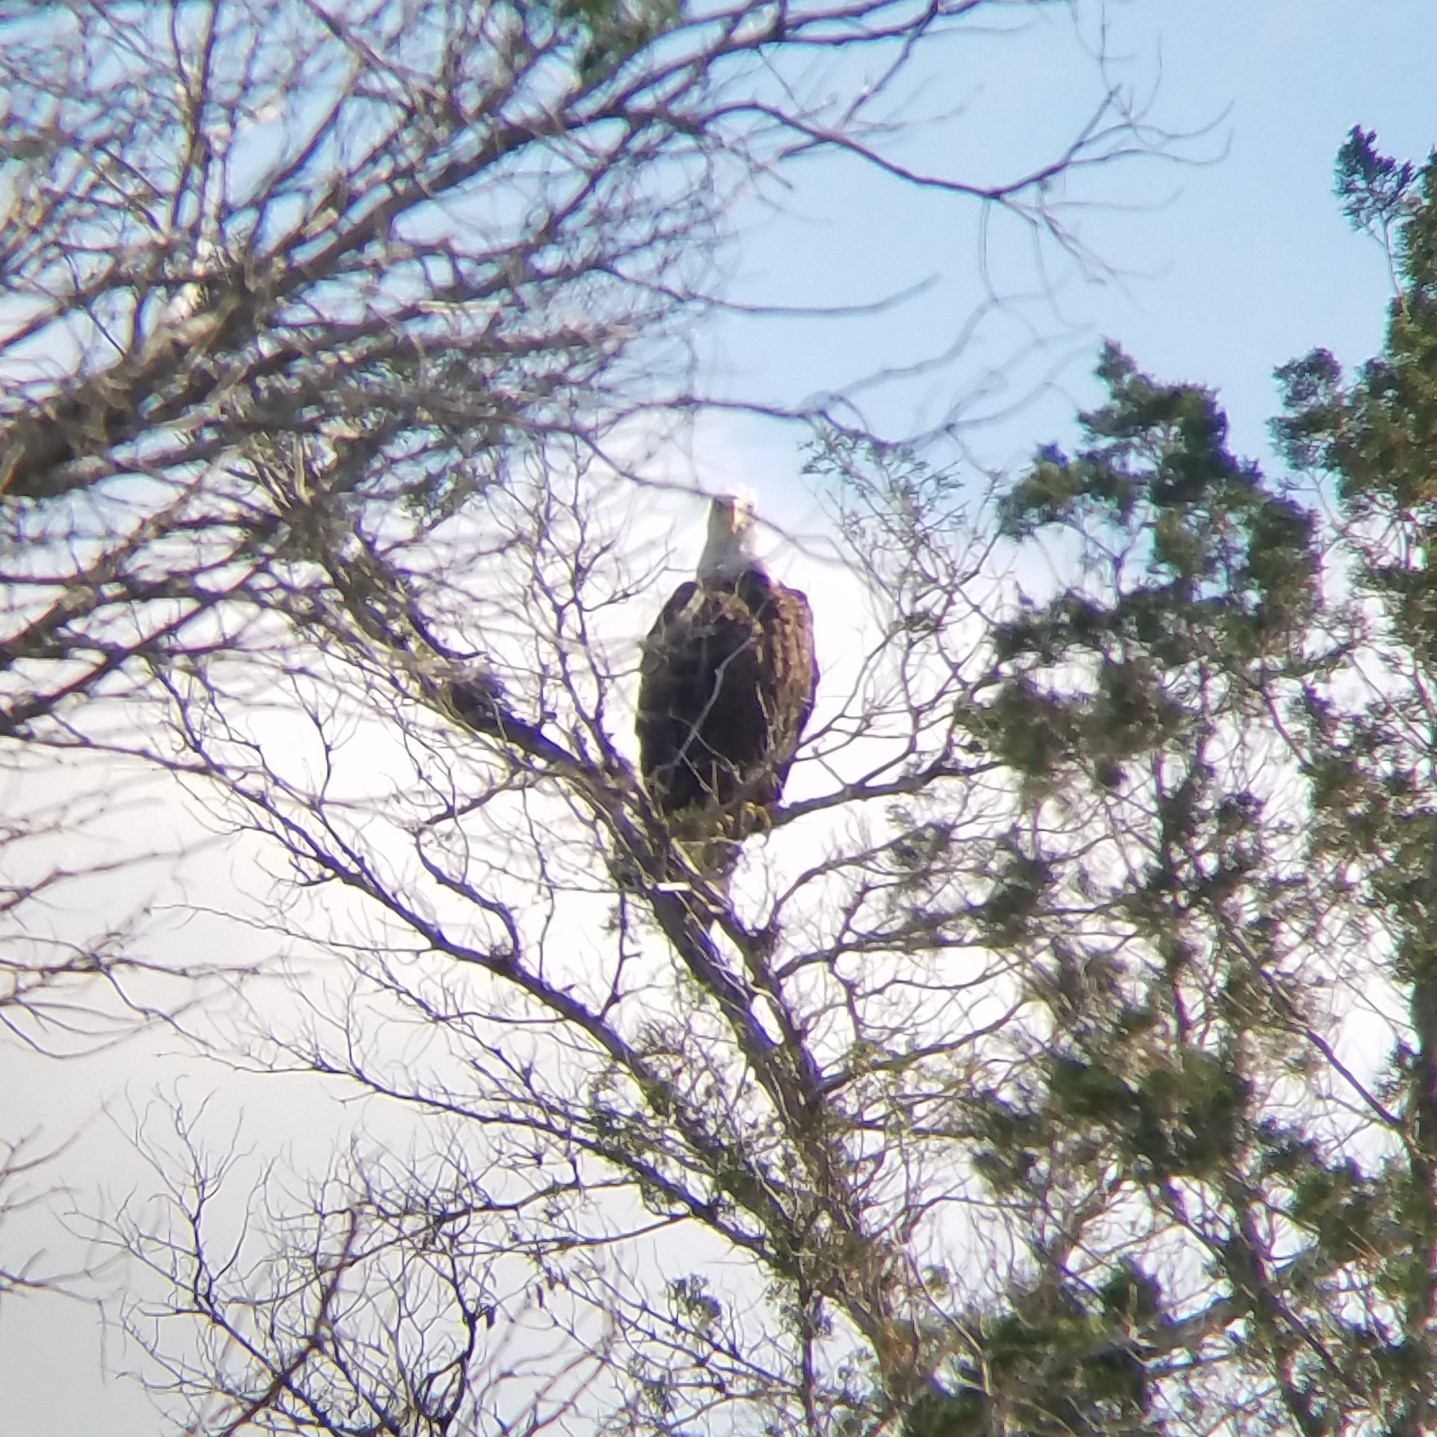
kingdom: Animalia
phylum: Chordata
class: Aves
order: Accipitriformes
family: Accipitridae
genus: Haliaeetus
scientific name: Haliaeetus leucocephalus
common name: Bald eagle
